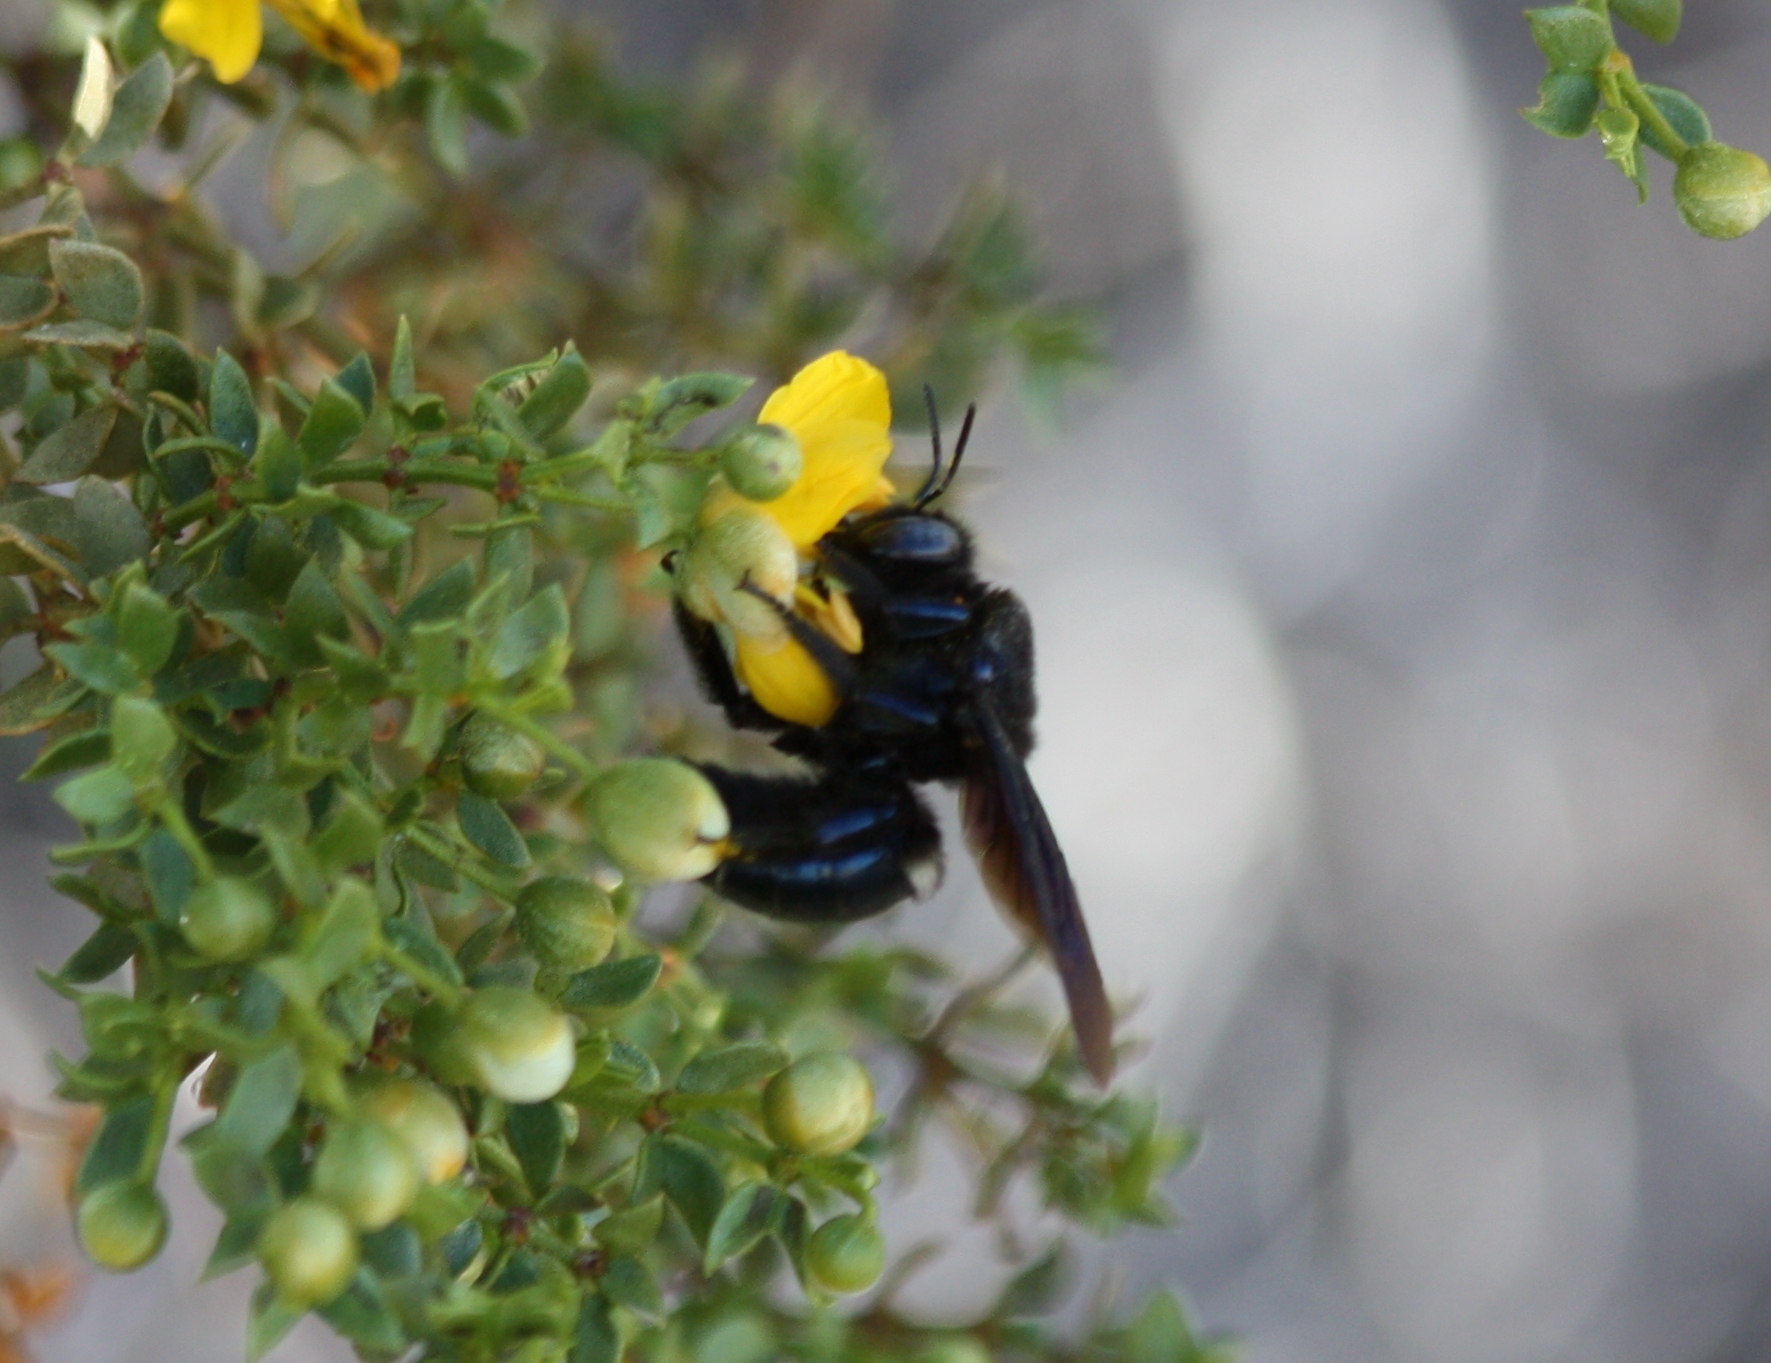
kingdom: Animalia
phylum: Arthropoda
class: Insecta
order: Hymenoptera
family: Apidae
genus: Xylocopa
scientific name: Xylocopa californica
